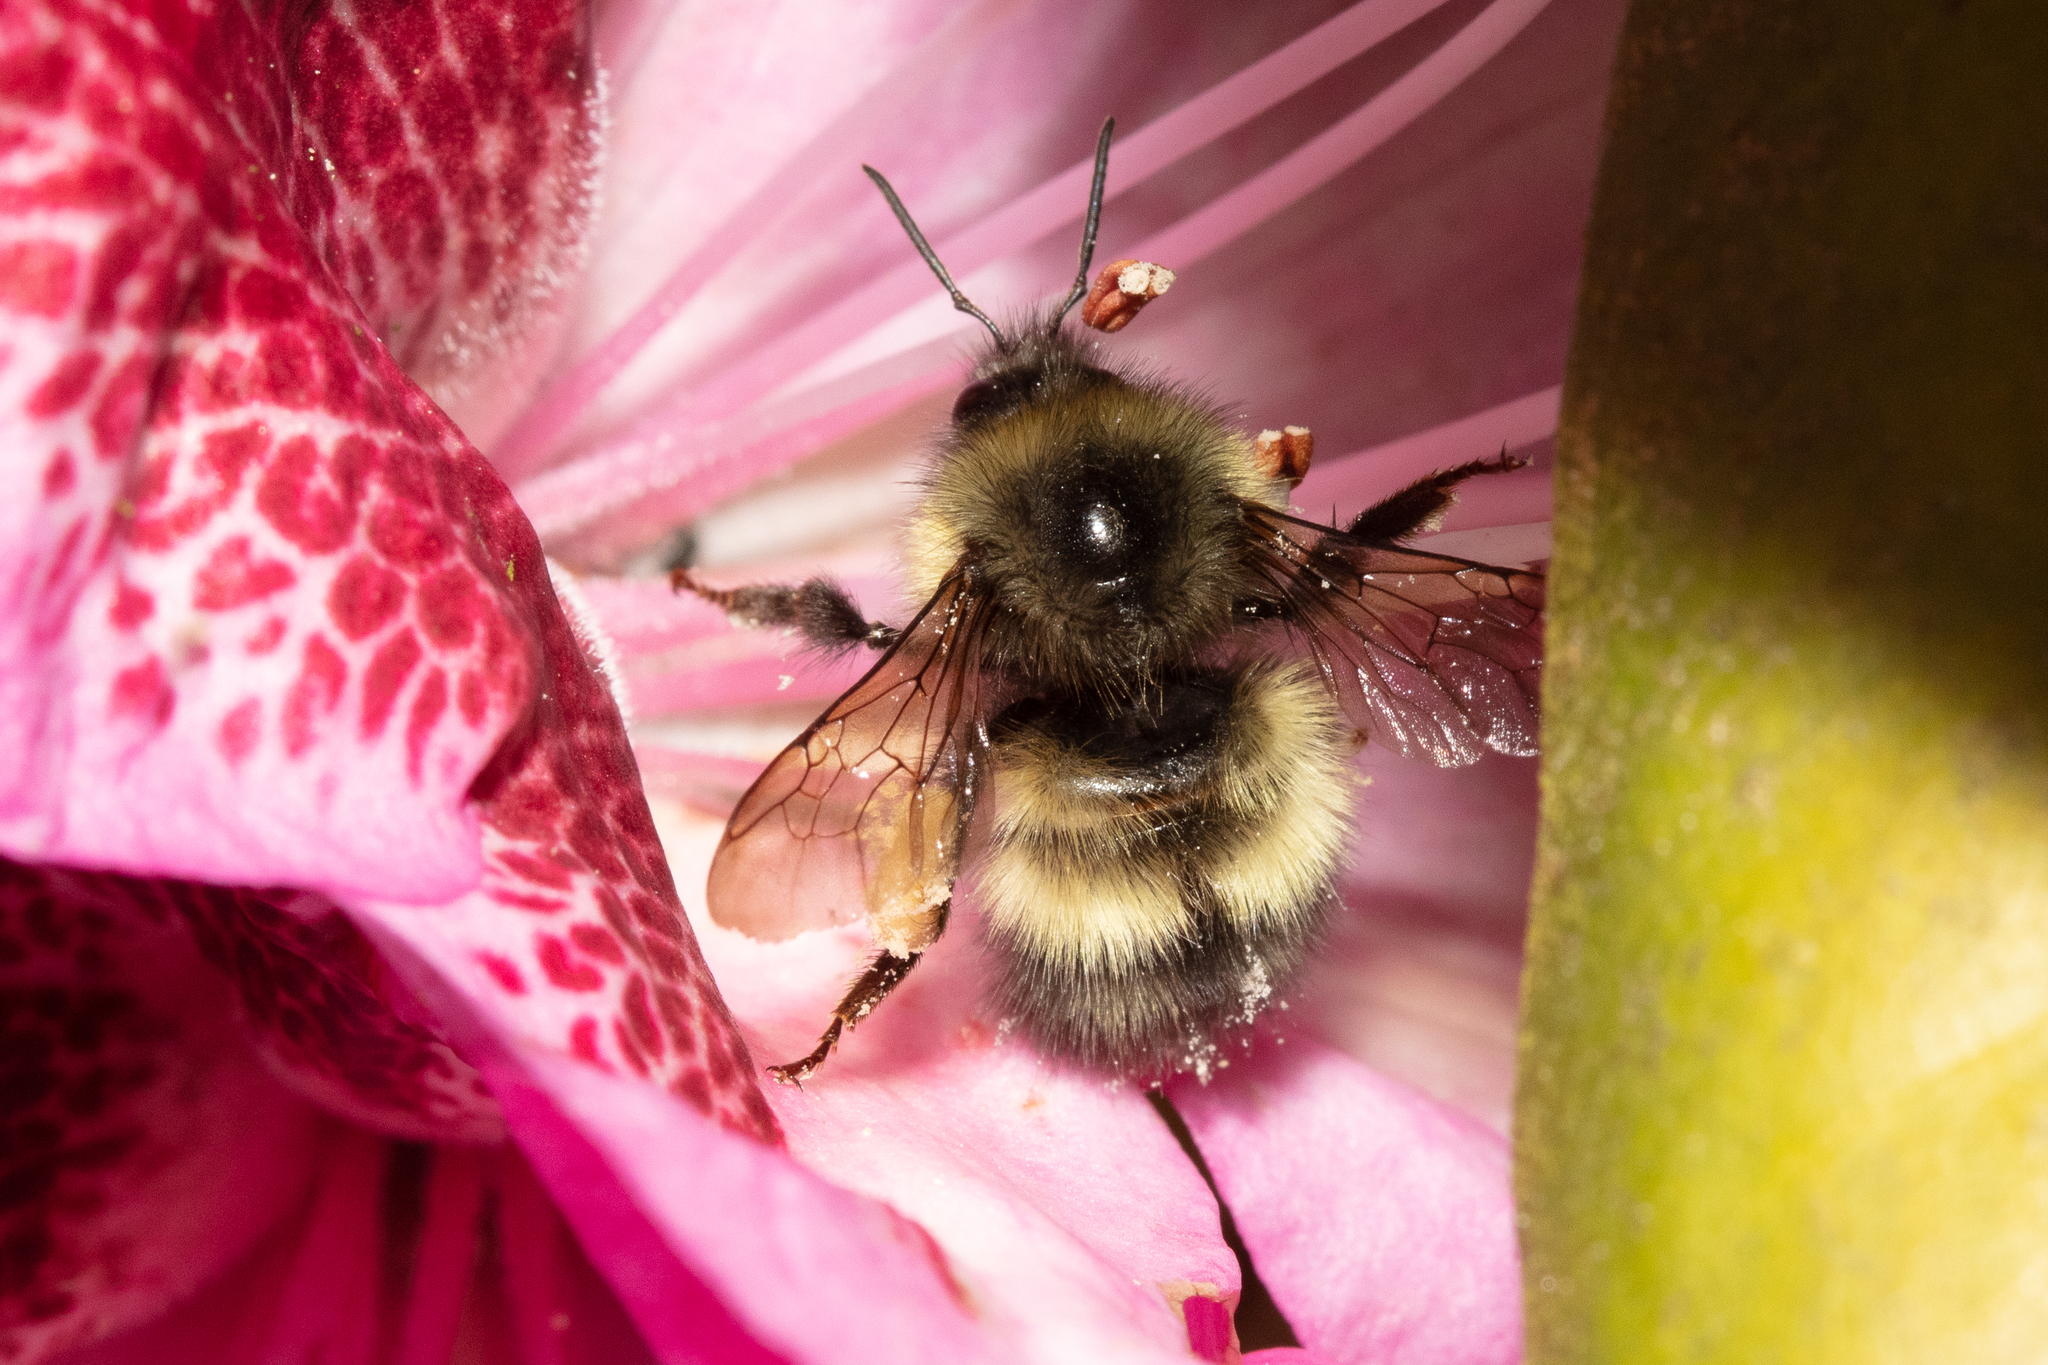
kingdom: Animalia
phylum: Arthropoda
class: Insecta
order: Hymenoptera
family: Apidae
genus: Bombus
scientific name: Bombus sitkensis
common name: Sitka bumble bee
